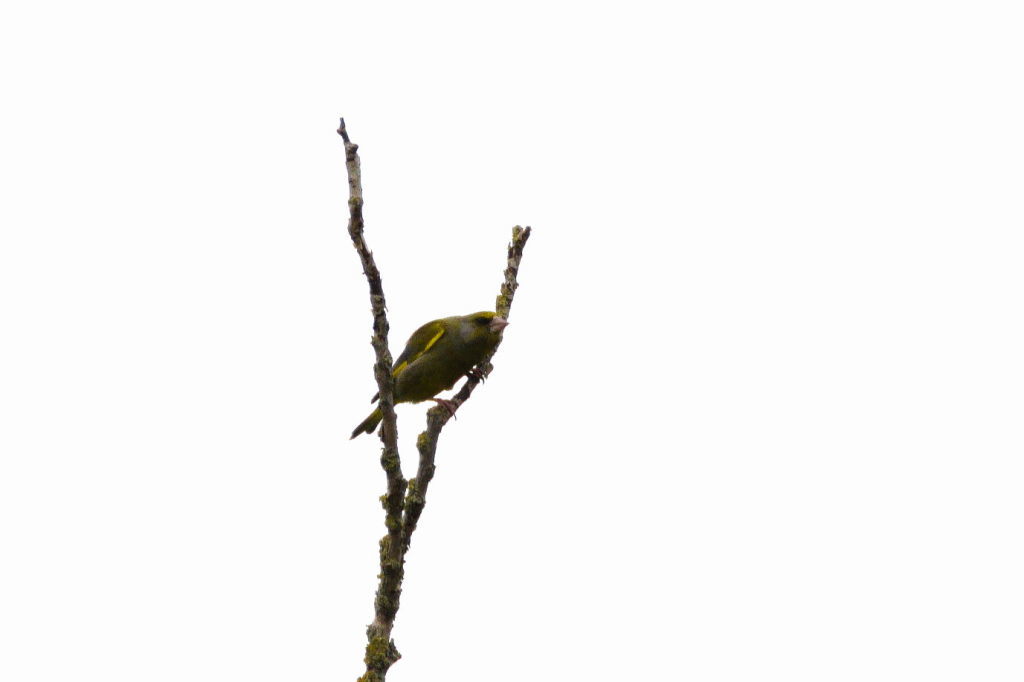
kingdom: Plantae
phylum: Tracheophyta
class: Liliopsida
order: Poales
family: Poaceae
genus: Chloris
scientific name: Chloris chloris
